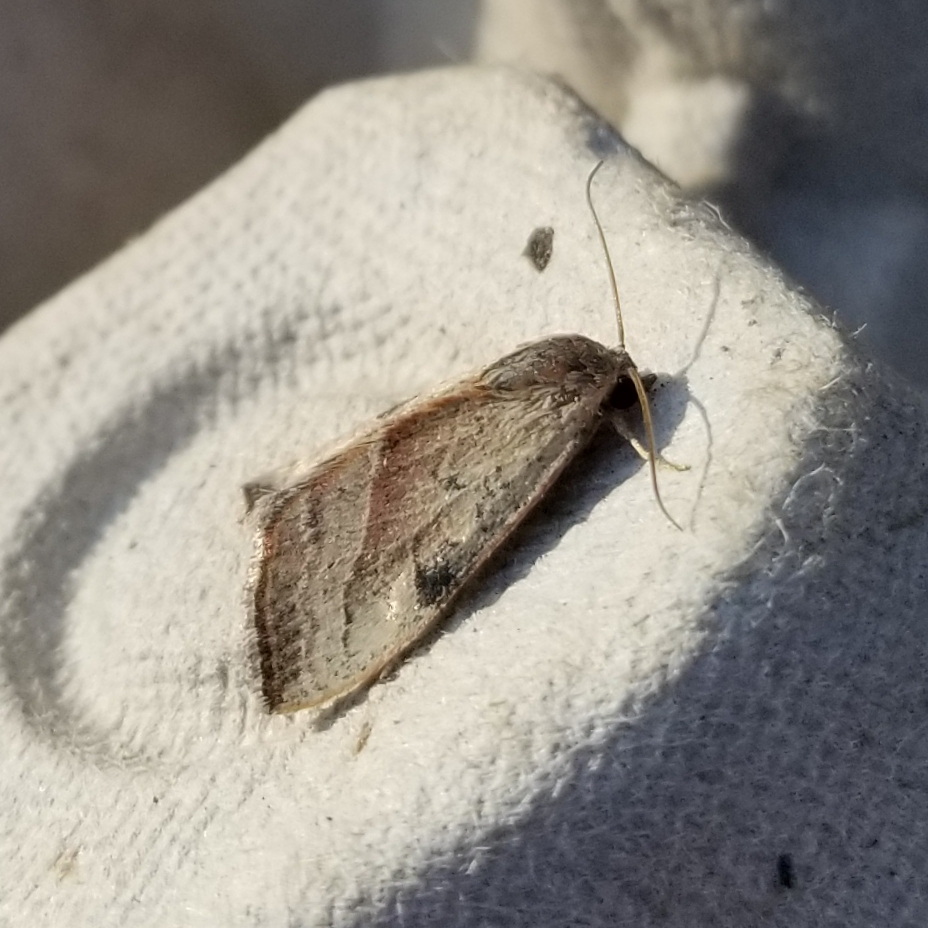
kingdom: Animalia
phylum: Arthropoda
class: Insecta
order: Lepidoptera
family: Noctuidae
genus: Galgula
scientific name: Galgula partita
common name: Wedgeling
